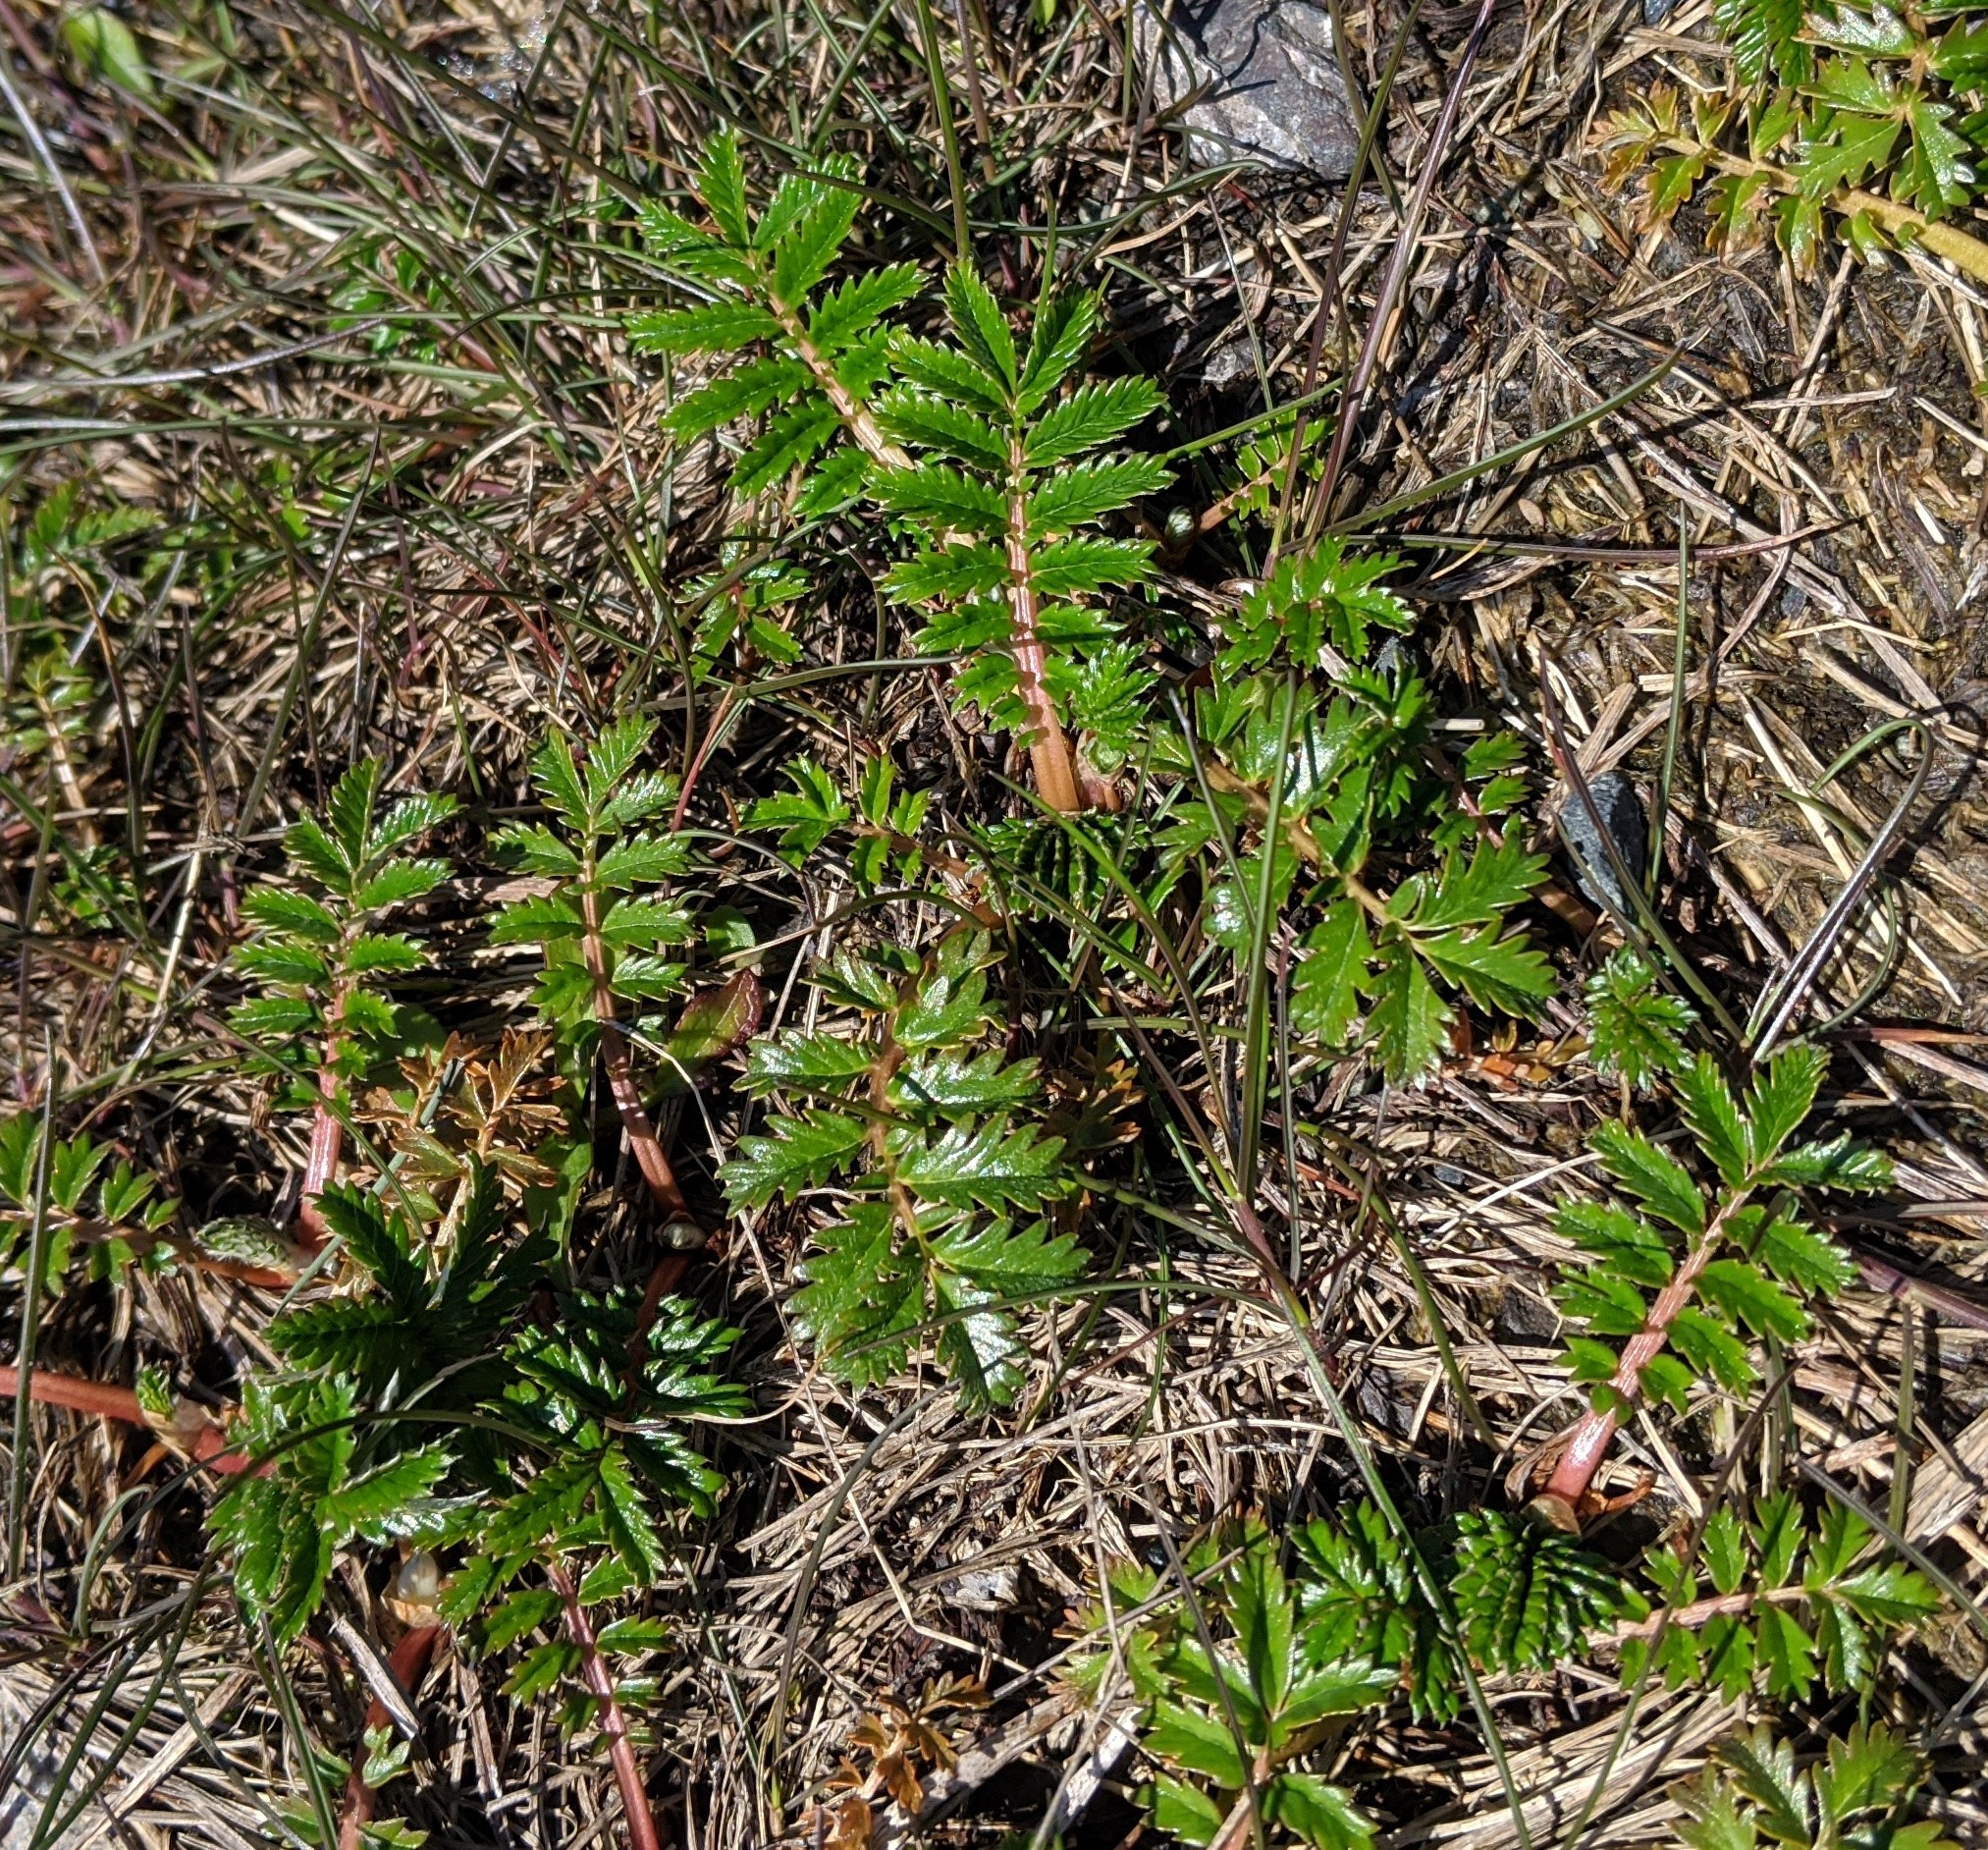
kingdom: Plantae
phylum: Tracheophyta
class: Magnoliopsida
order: Rosales
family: Rosaceae
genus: Argentina
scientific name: Argentina anserina
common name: Common silverweed
